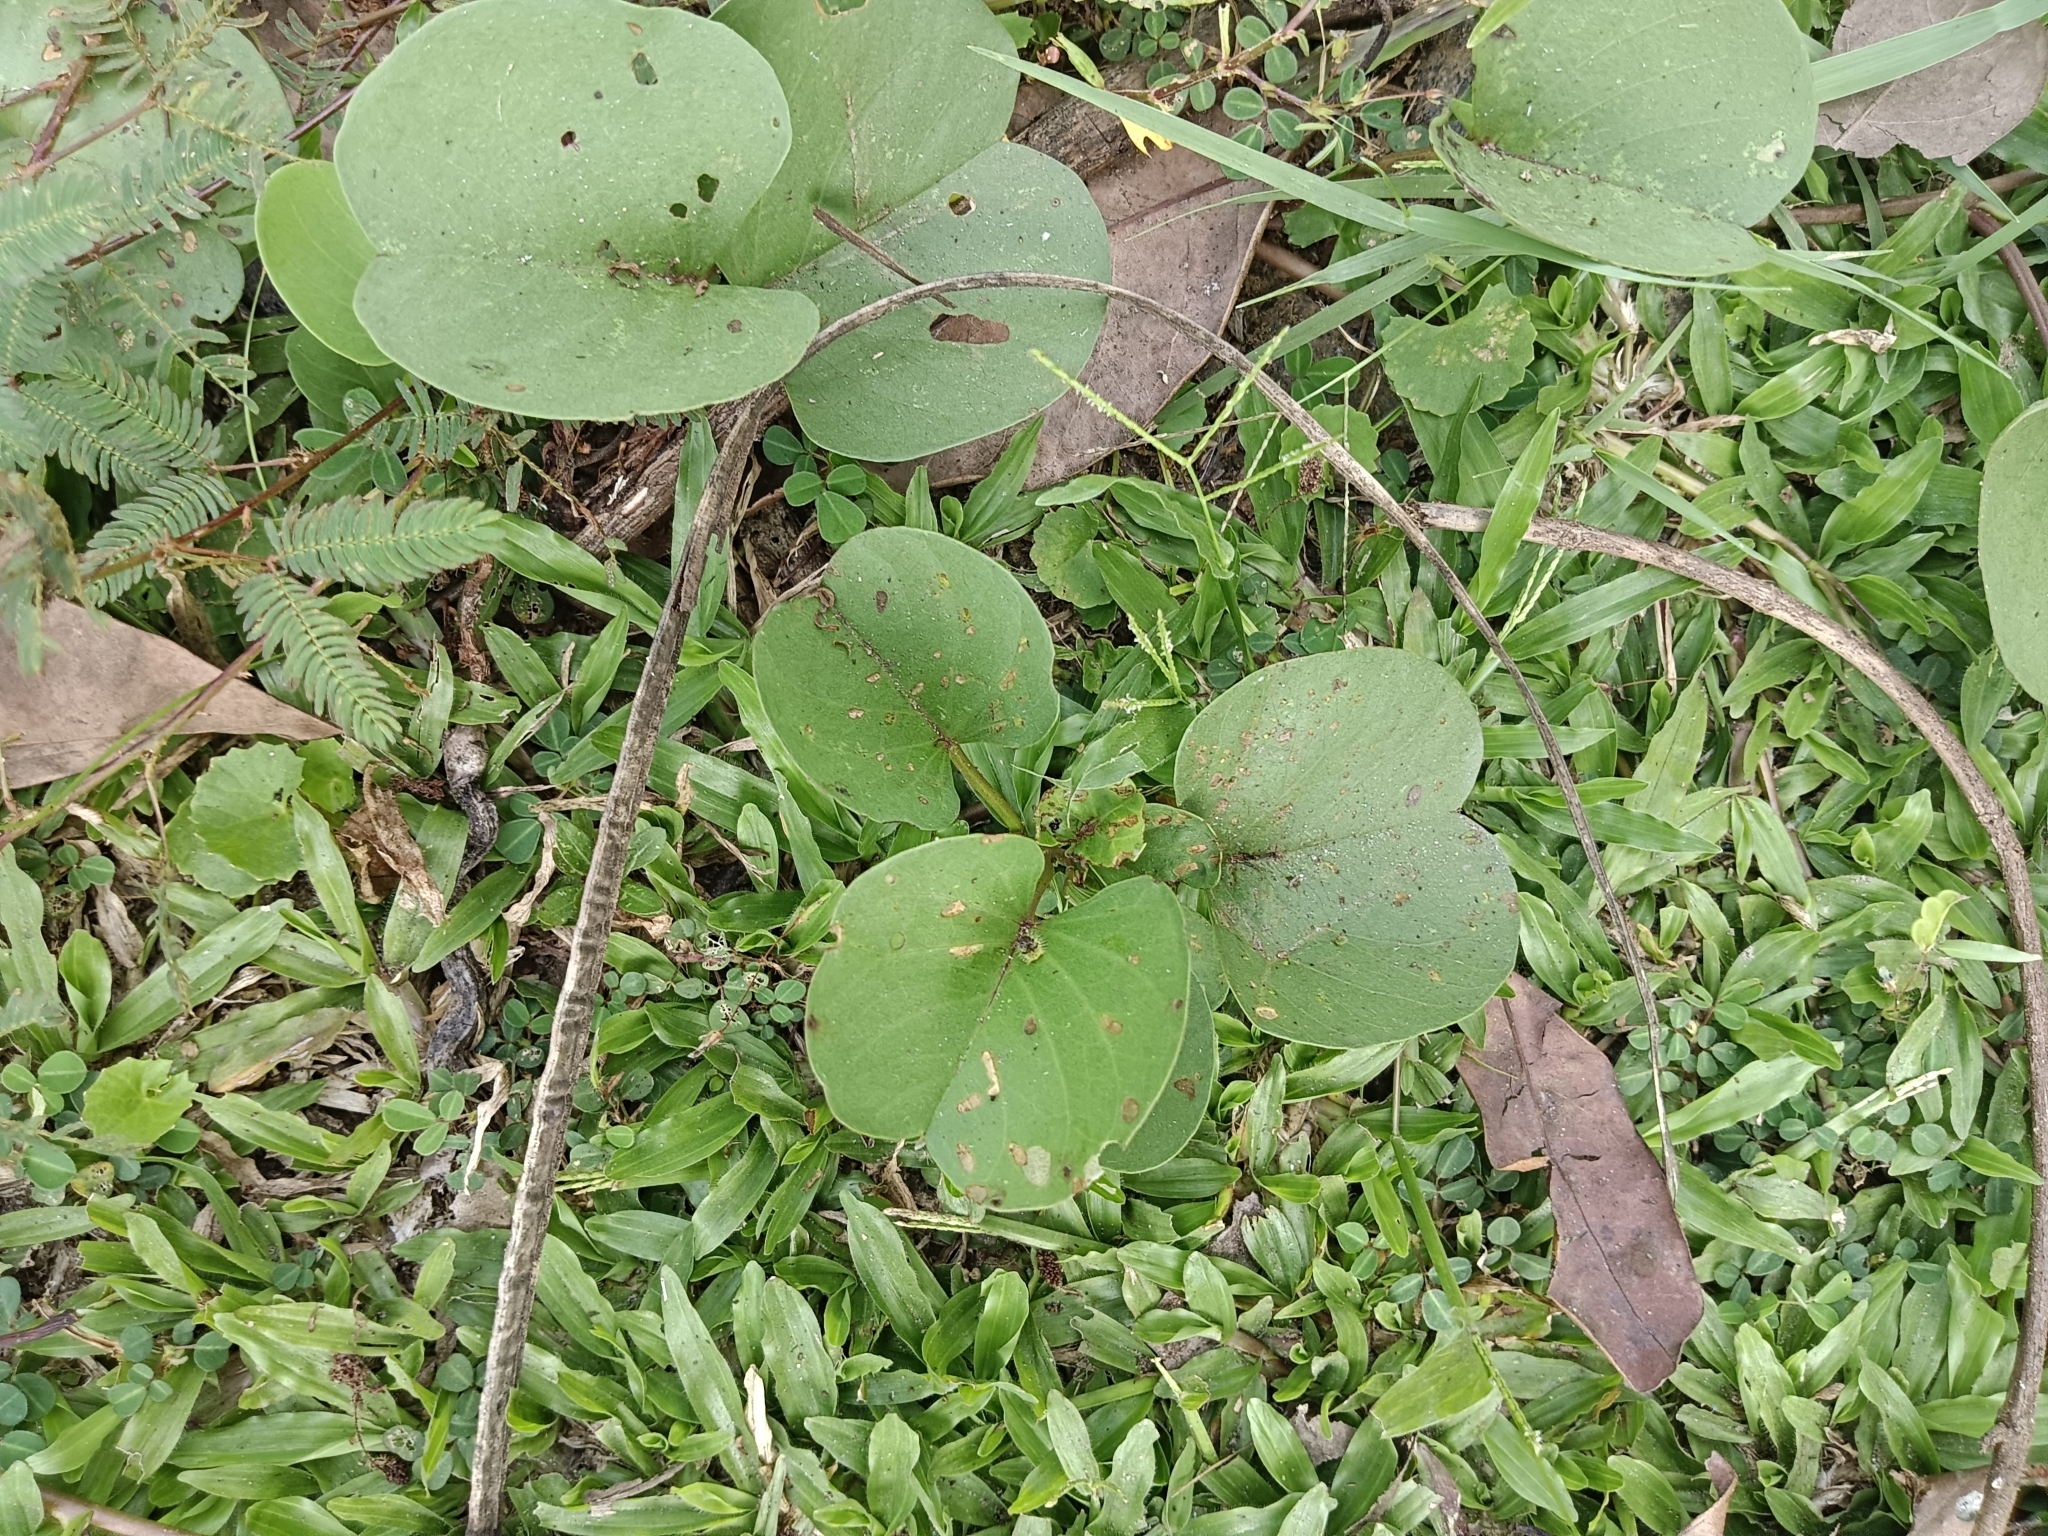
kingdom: Plantae
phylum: Tracheophyta
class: Magnoliopsida
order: Solanales
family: Convolvulaceae
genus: Ipomoea
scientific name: Ipomoea pes-caprae
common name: Beach morning glory
